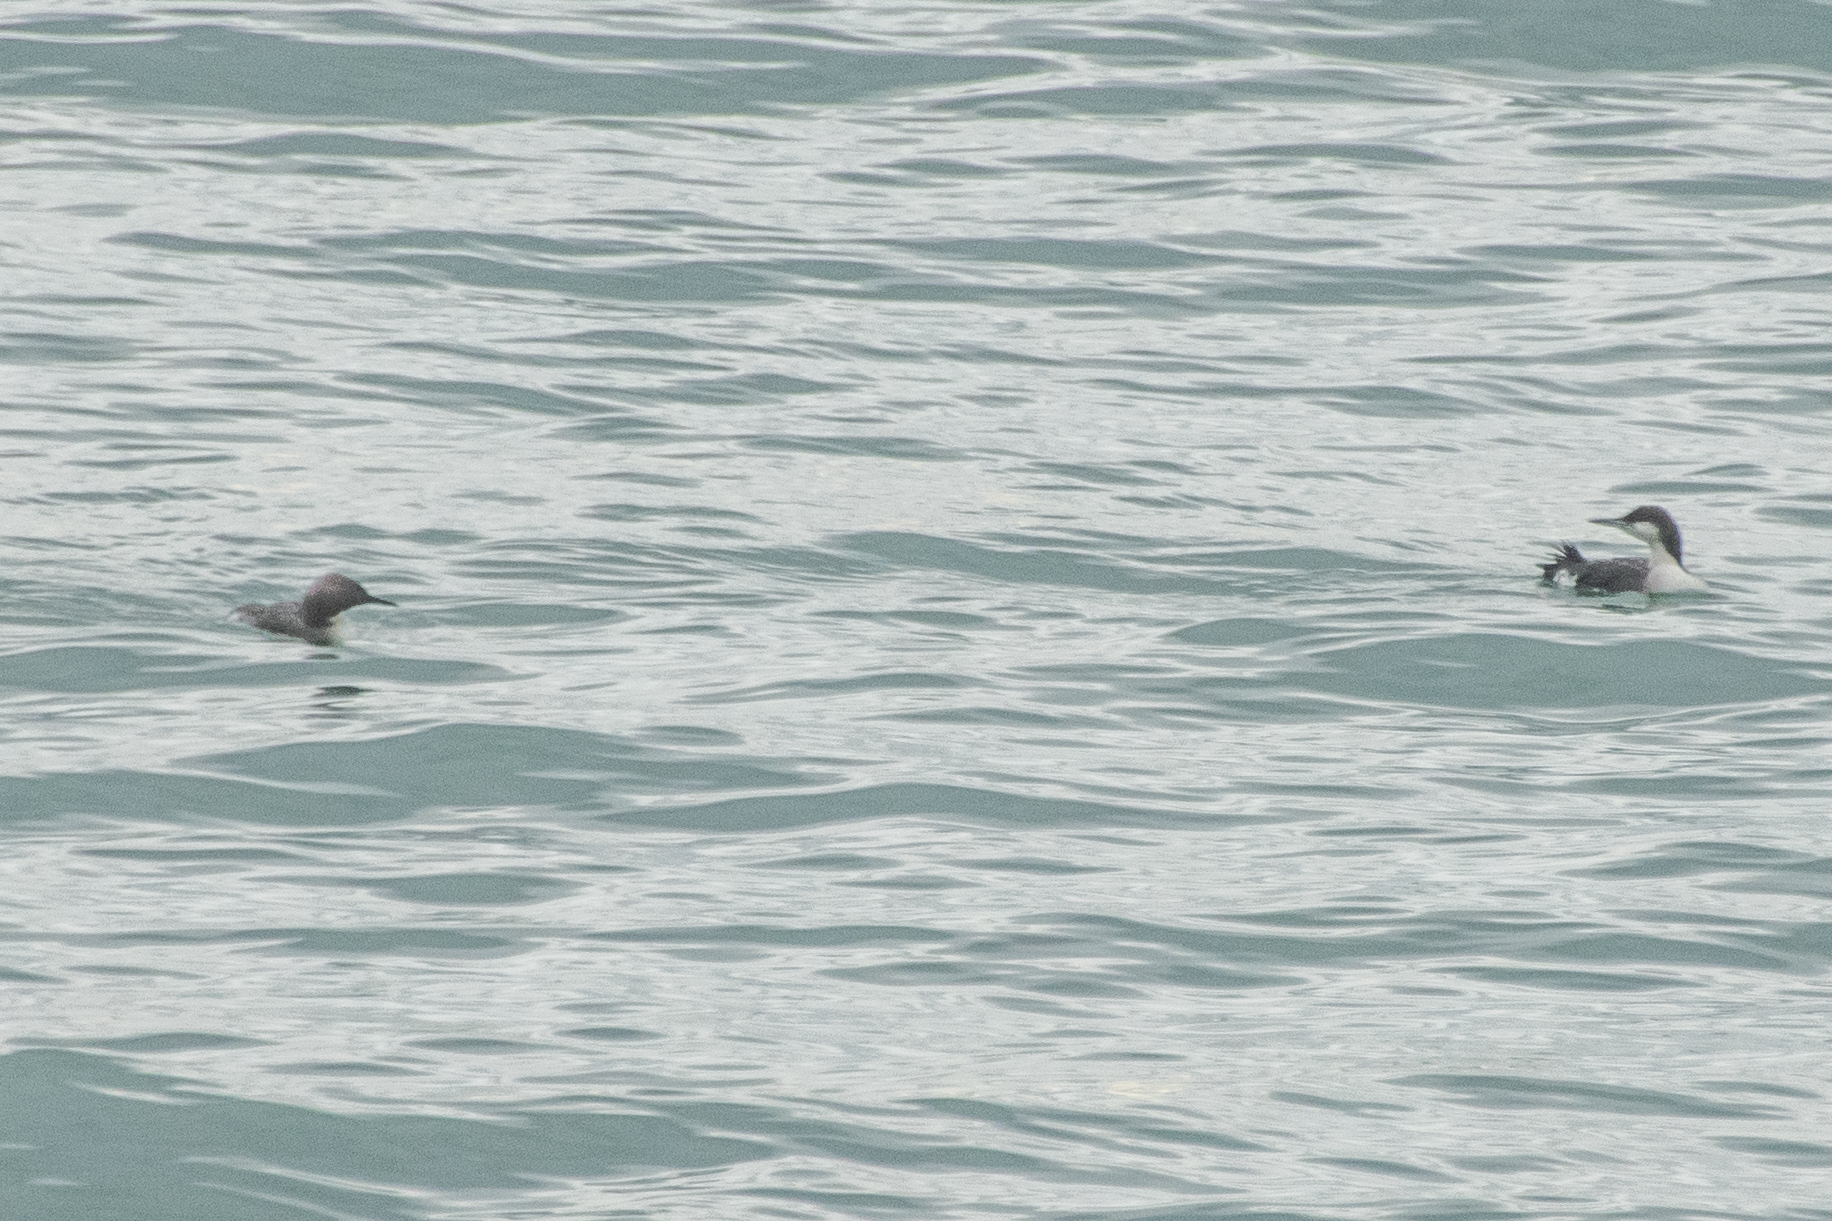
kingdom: Animalia
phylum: Chordata
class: Aves
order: Gaviiformes
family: Gaviidae
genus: Gavia
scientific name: Gavia arctica
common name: Black-throated loon
